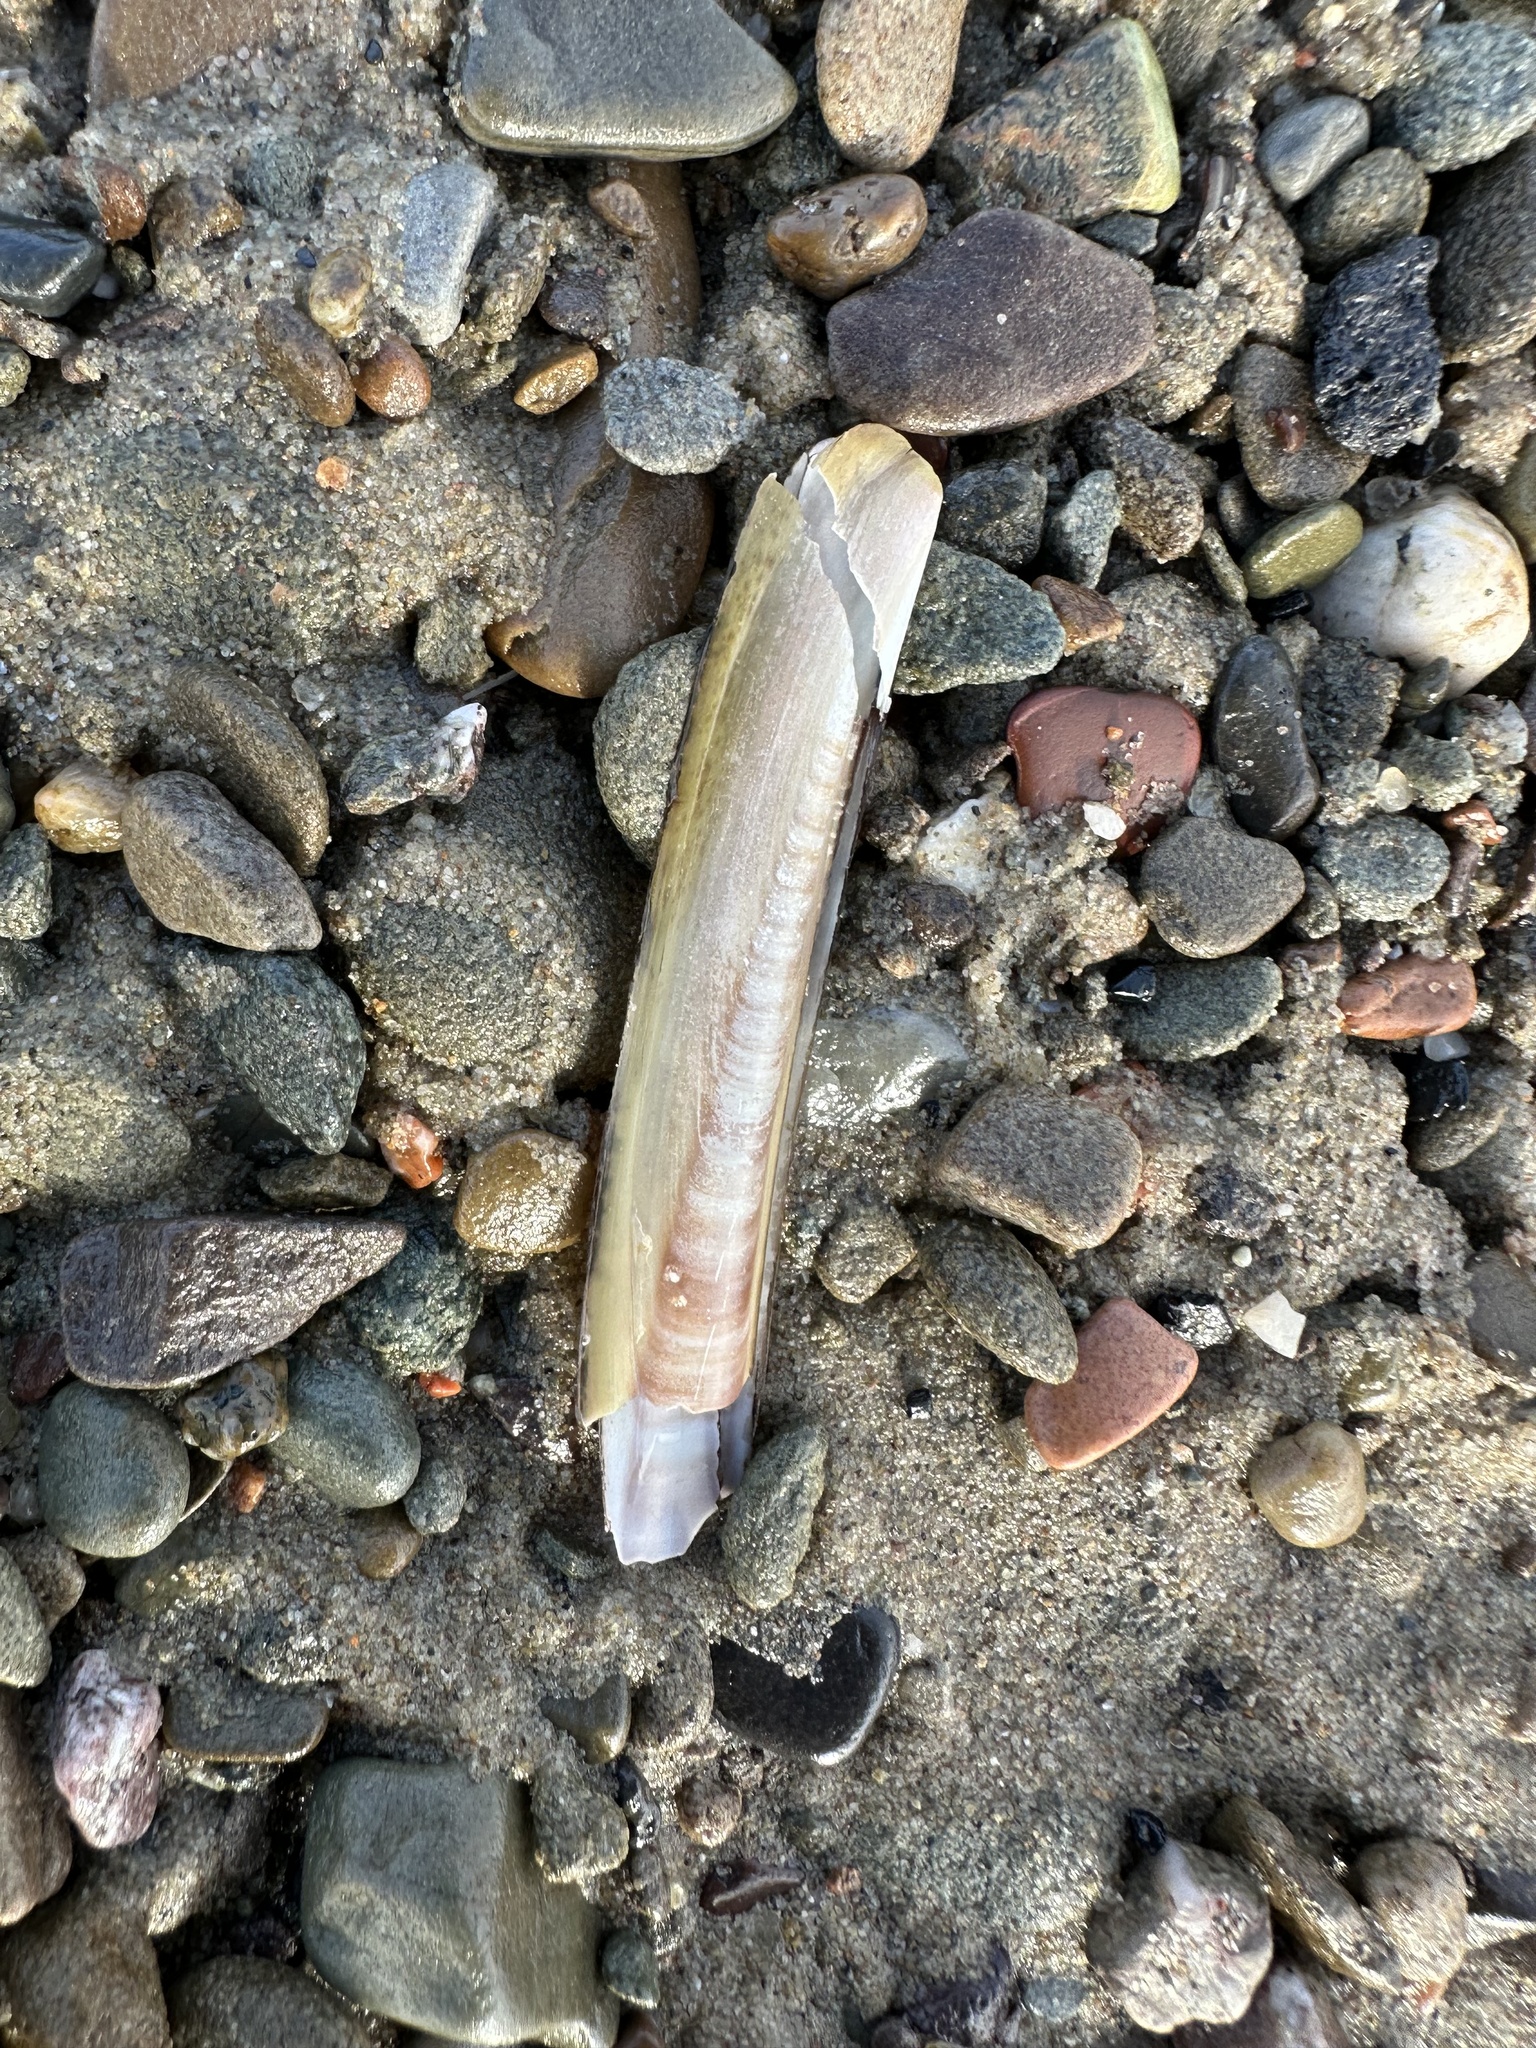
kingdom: Animalia
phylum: Mollusca
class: Bivalvia
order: Adapedonta
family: Pharidae
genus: Ensis
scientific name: Ensis leei
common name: American jack knife clam
